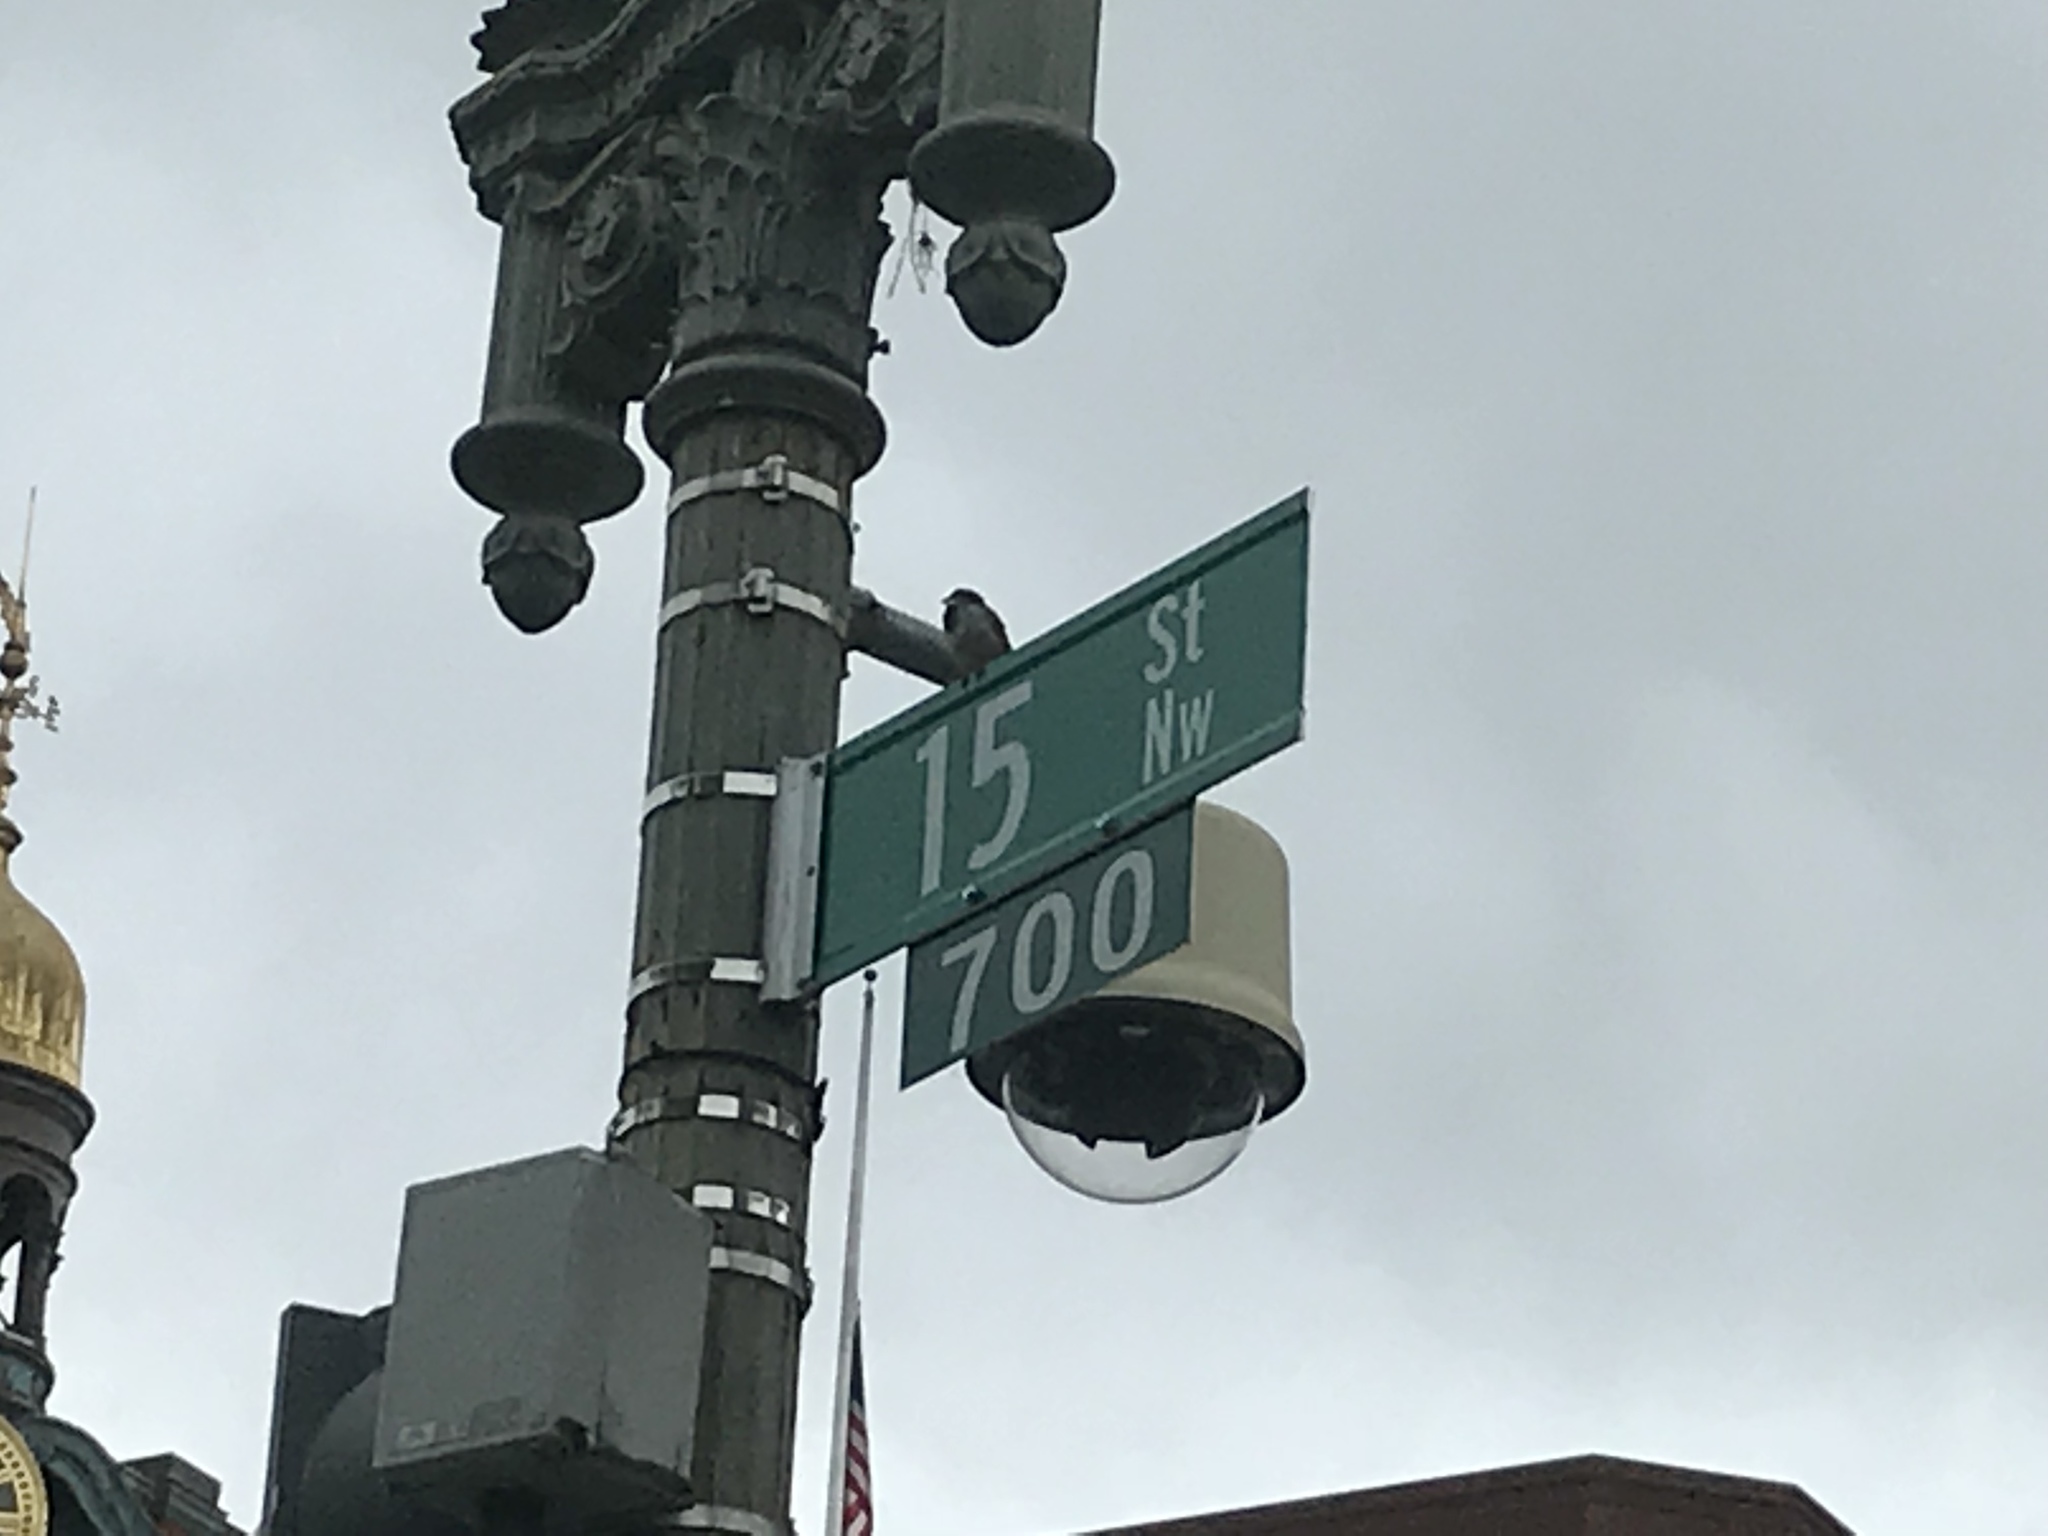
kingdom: Animalia
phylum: Chordata
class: Aves
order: Passeriformes
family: Passeridae
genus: Passer
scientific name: Passer domesticus
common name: House sparrow
